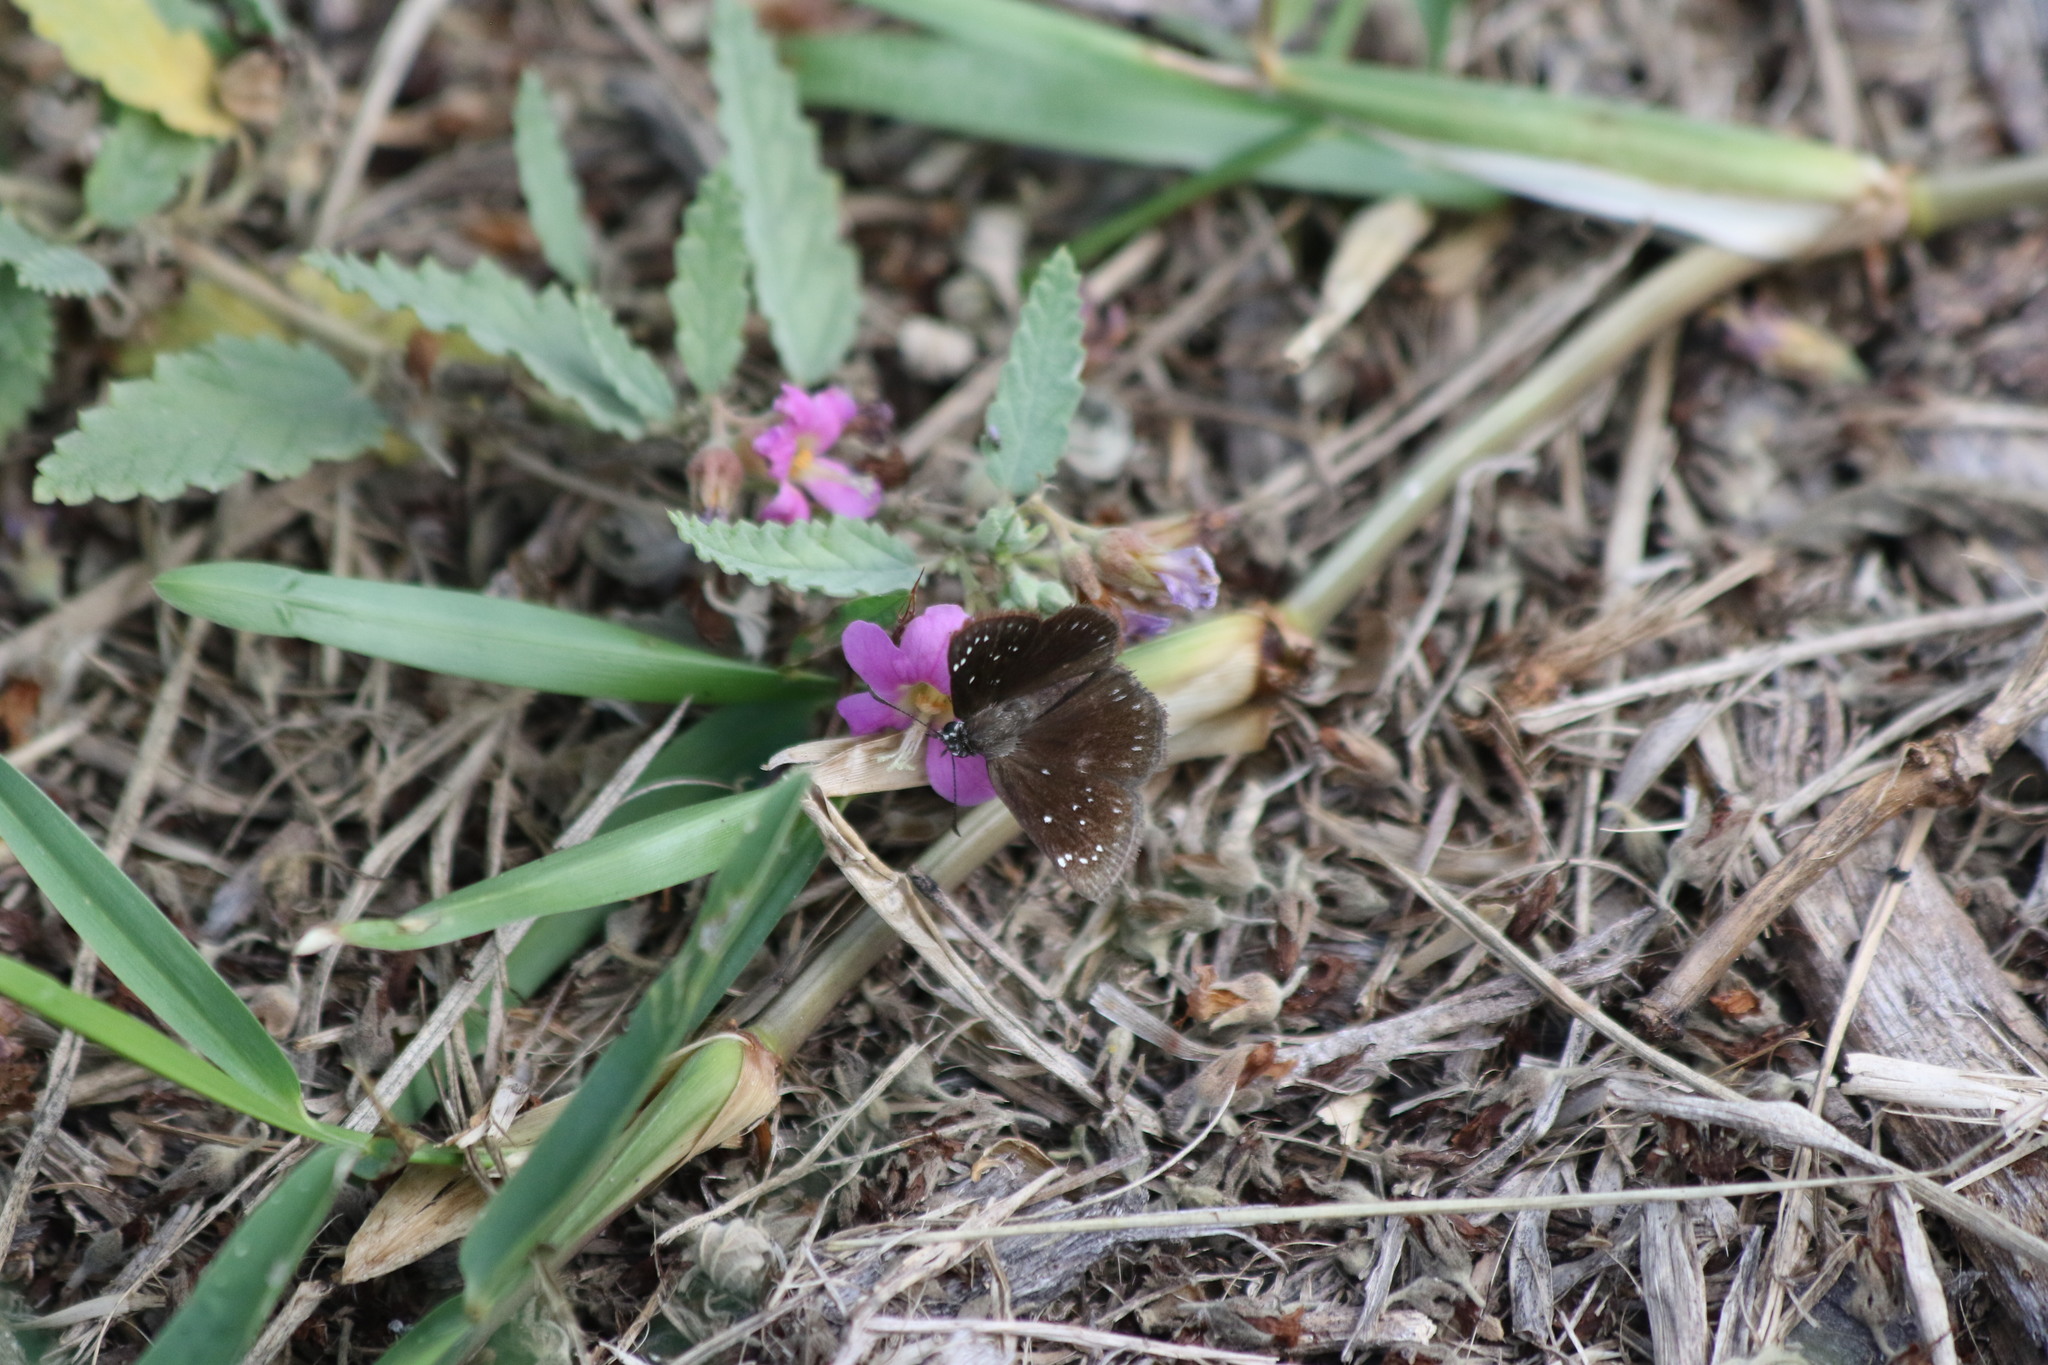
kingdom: Animalia
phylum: Arthropoda
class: Insecta
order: Lepidoptera
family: Hesperiidae
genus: Pholisora
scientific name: Pholisora catullus
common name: Common sootywing
